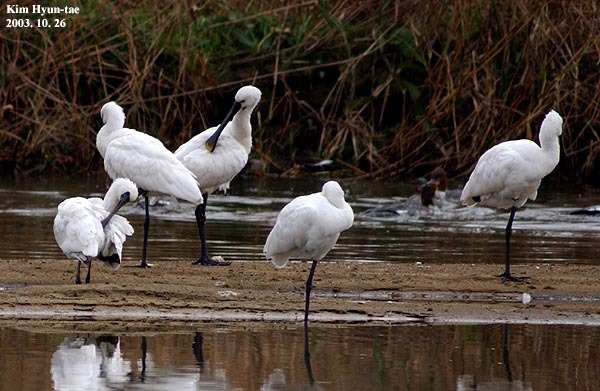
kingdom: Animalia
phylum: Chordata
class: Aves
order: Pelecaniformes
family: Threskiornithidae
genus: Platalea
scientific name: Platalea minor
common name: Black-faced spoonbill
